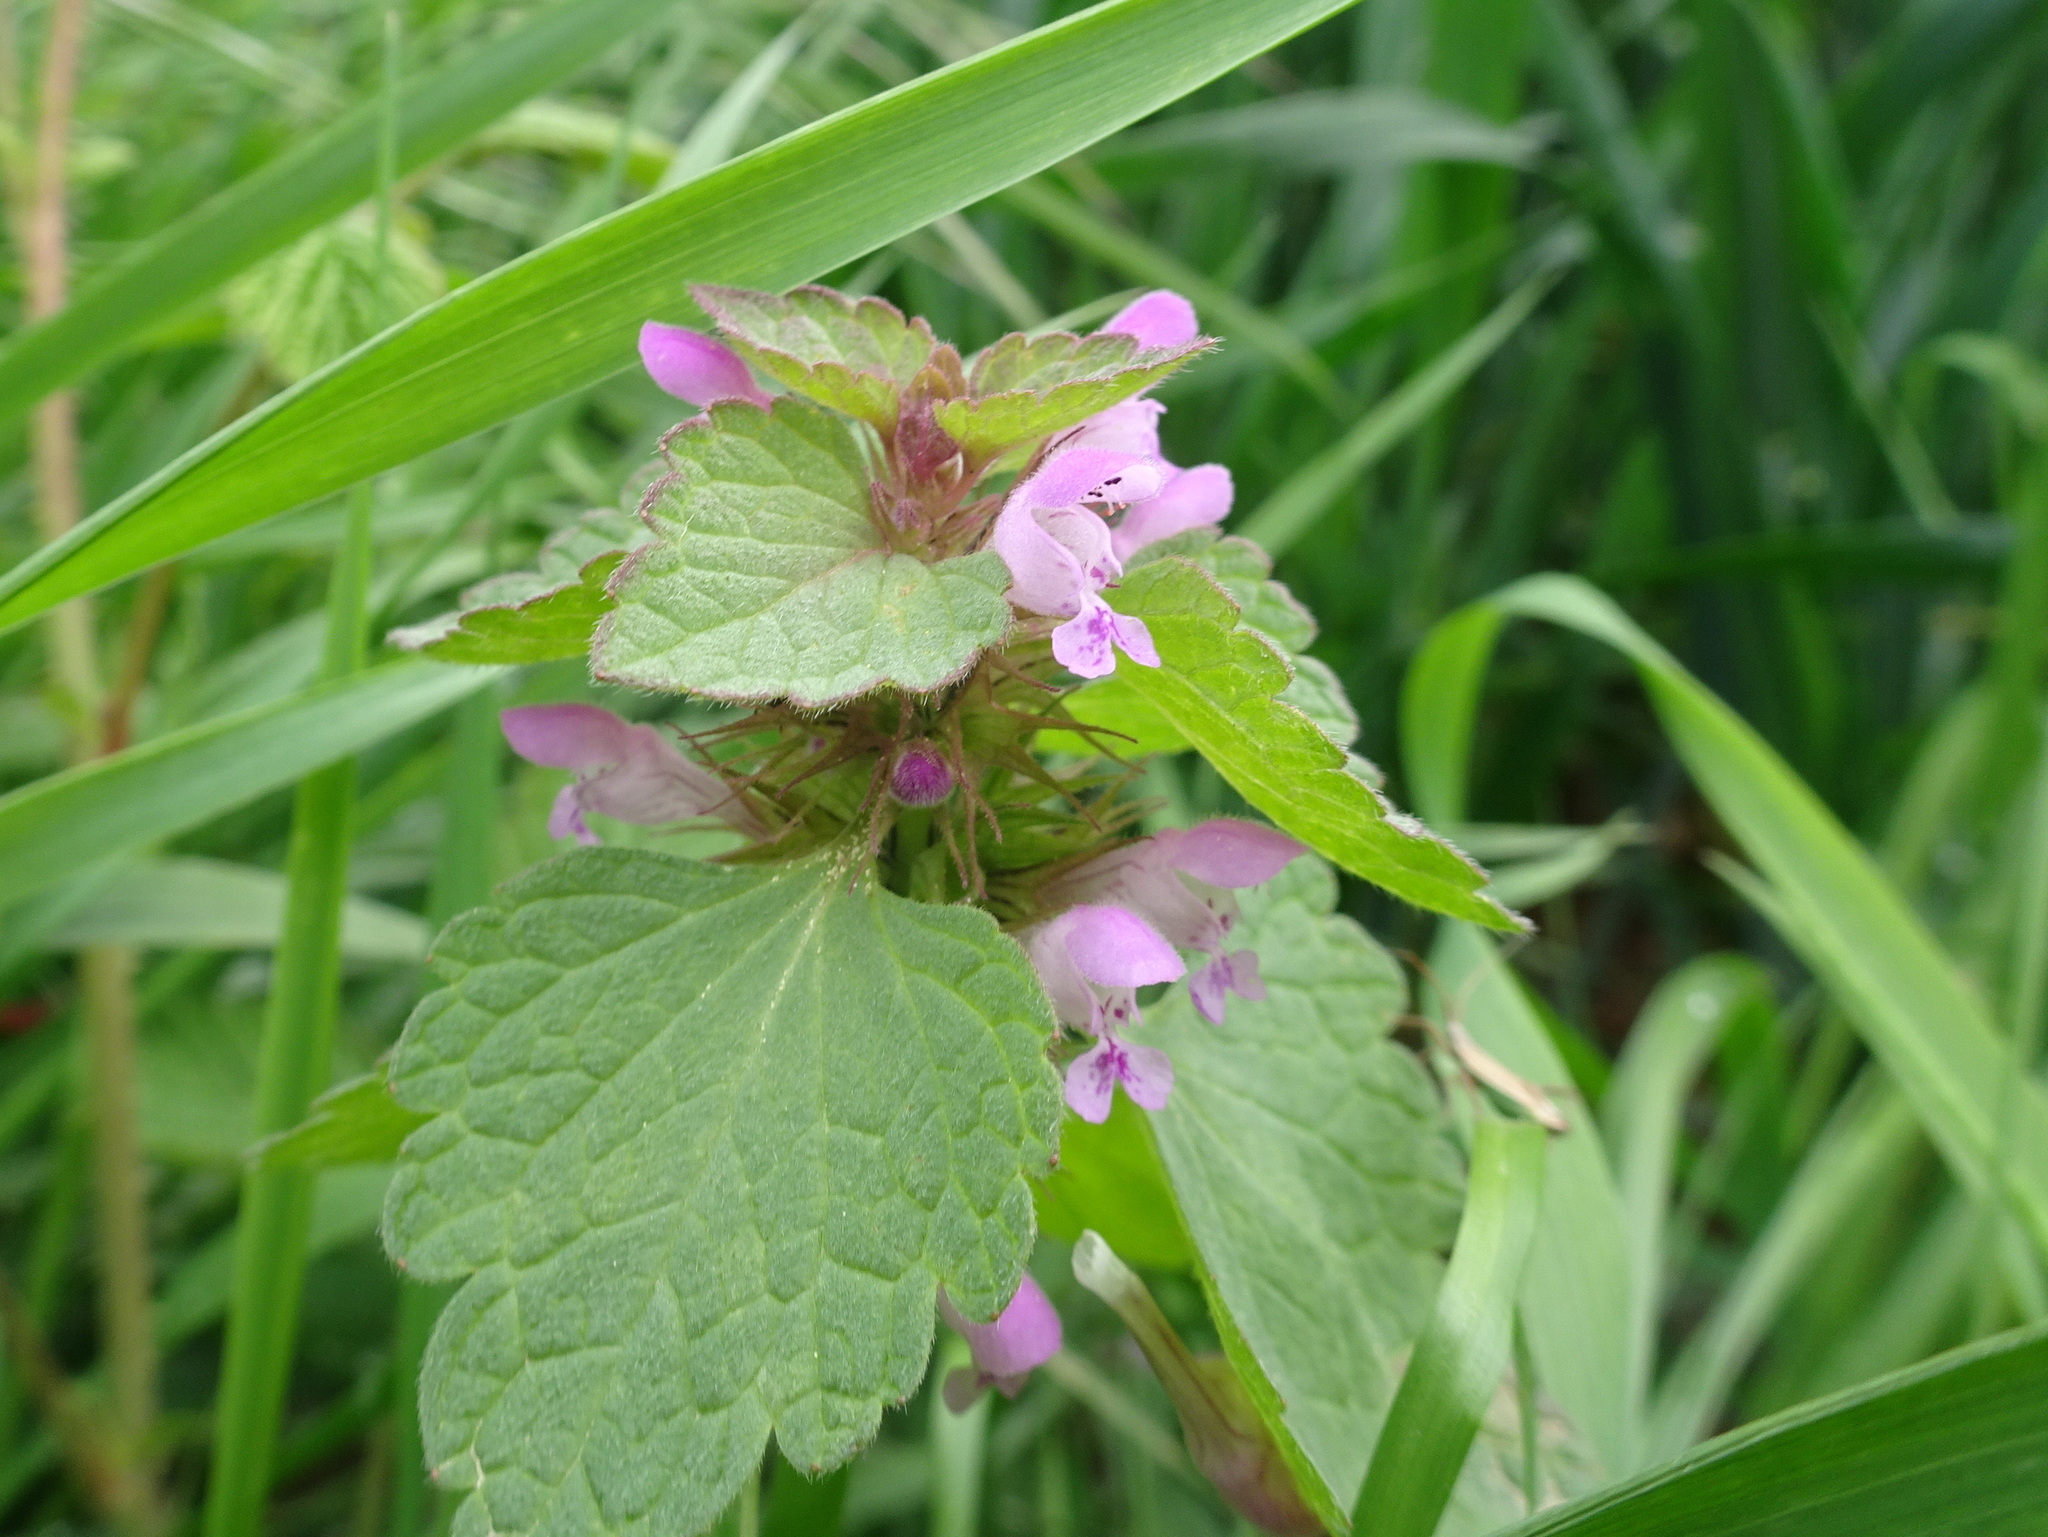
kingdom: Plantae
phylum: Tracheophyta
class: Magnoliopsida
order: Lamiales
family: Lamiaceae
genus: Lamium
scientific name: Lamium purpureum
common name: Red dead-nettle
